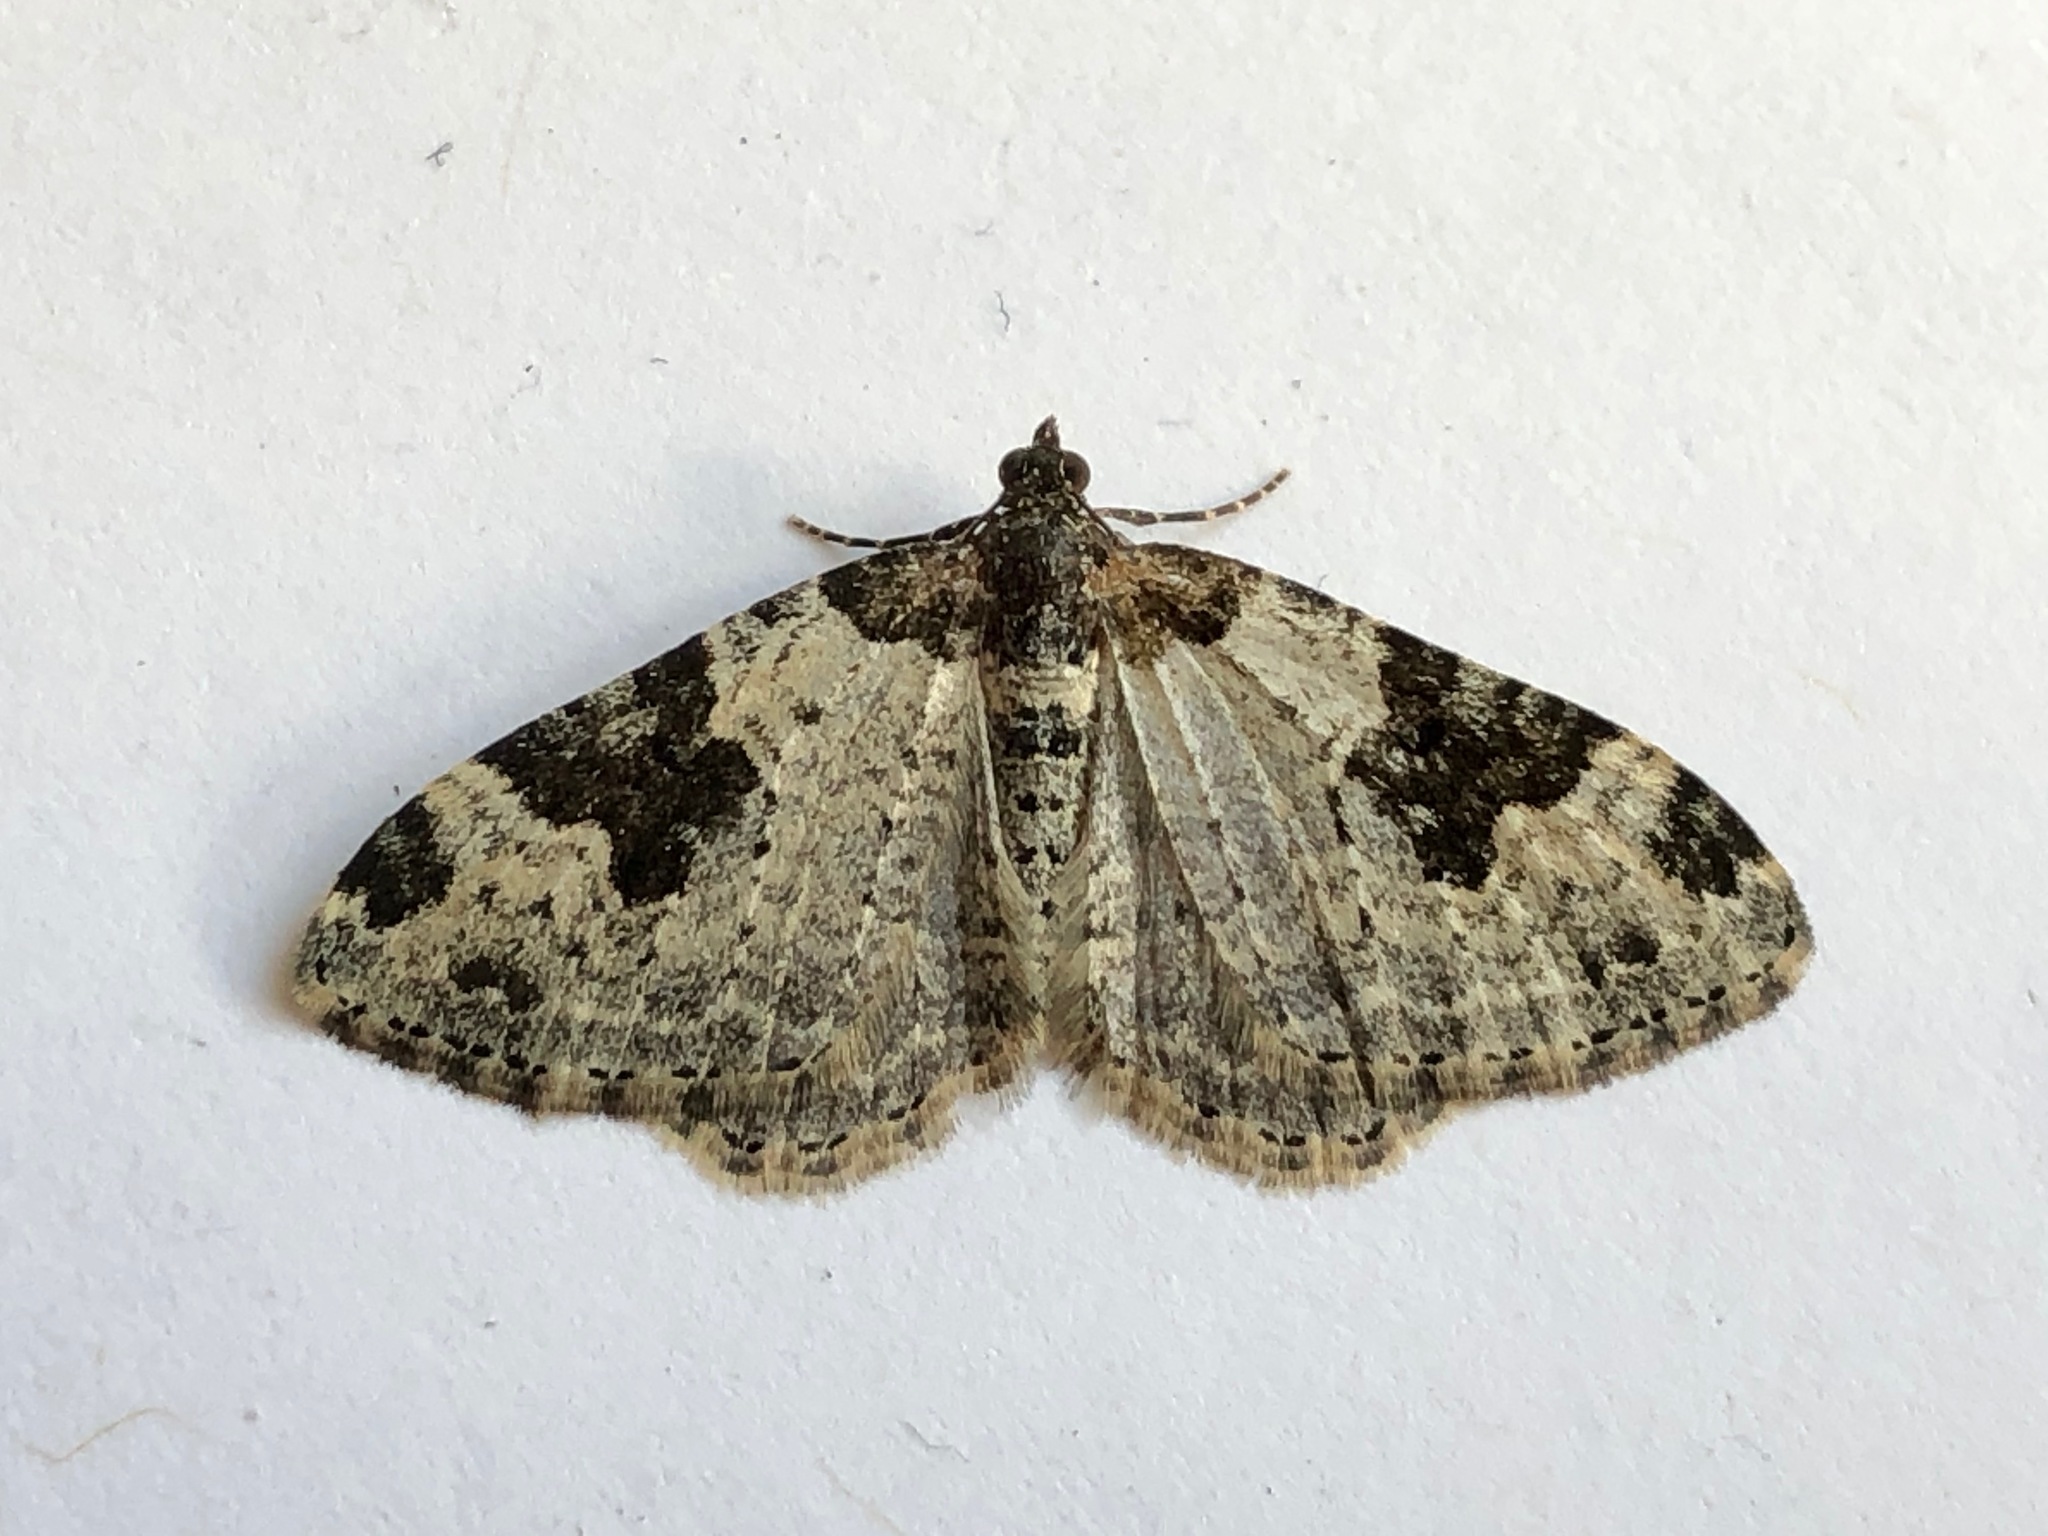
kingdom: Animalia
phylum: Arthropoda
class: Insecta
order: Lepidoptera
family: Geometridae
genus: Xanthorhoe
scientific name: Xanthorhoe fluctuata
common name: Garden carpet
